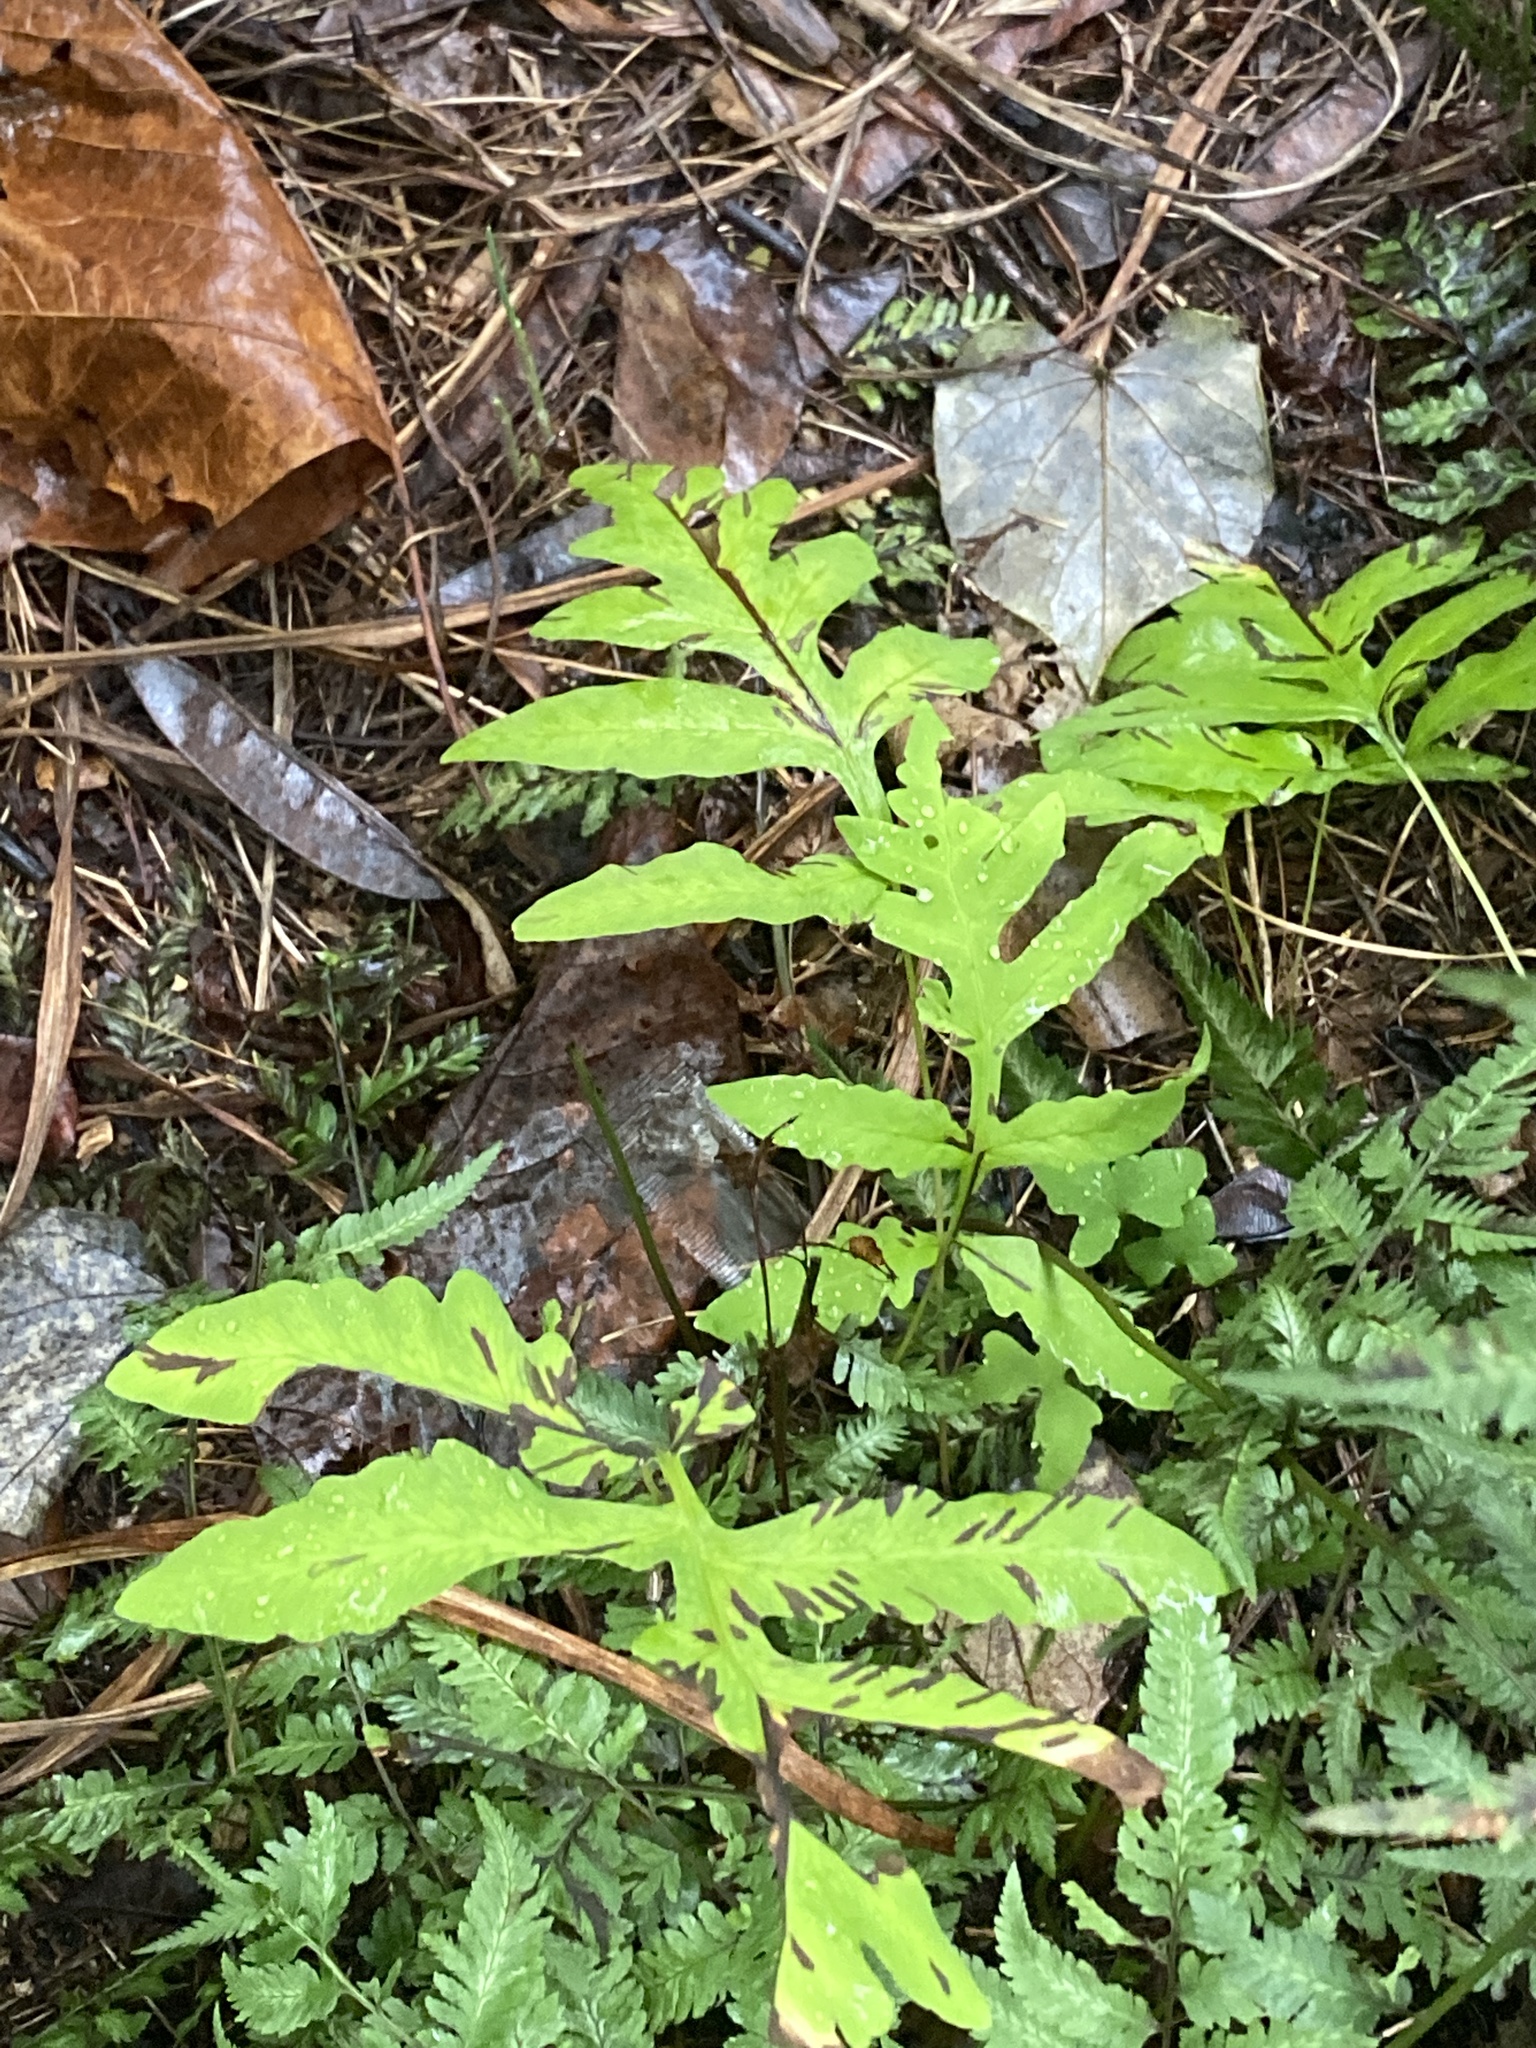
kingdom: Plantae
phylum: Tracheophyta
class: Polypodiopsida
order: Polypodiales
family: Onocleaceae
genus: Onoclea
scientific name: Onoclea sensibilis
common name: Sensitive fern
